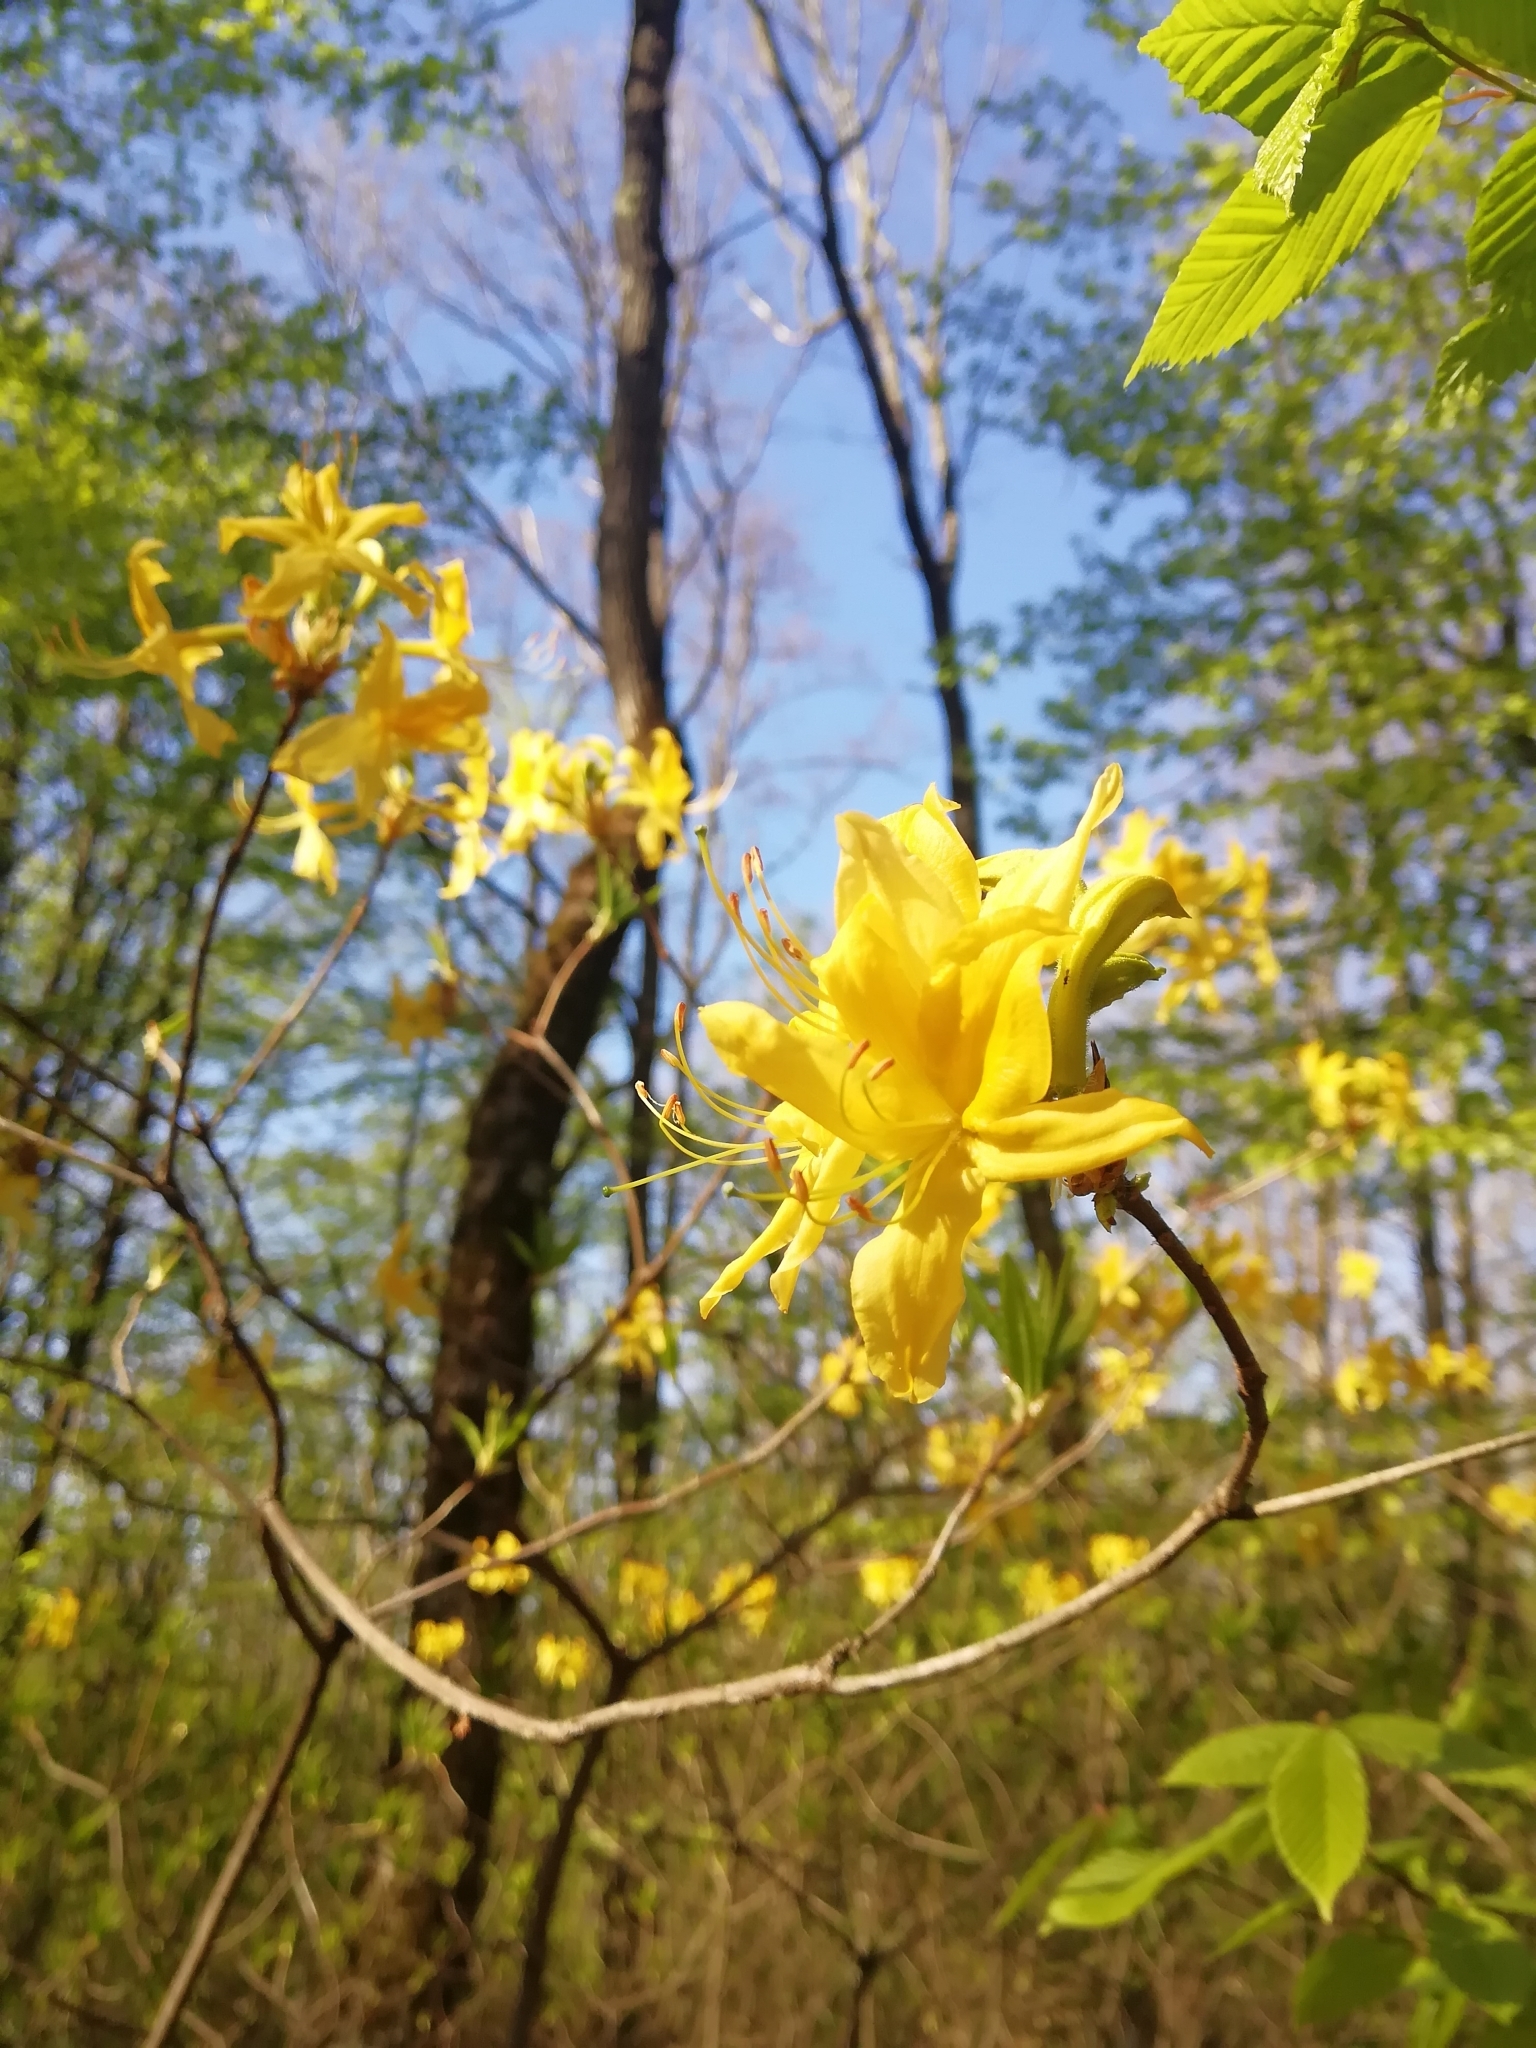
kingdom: Plantae
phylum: Tracheophyta
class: Magnoliopsida
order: Ericales
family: Ericaceae
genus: Rhododendron
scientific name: Rhododendron luteum
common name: Yellow azalea
